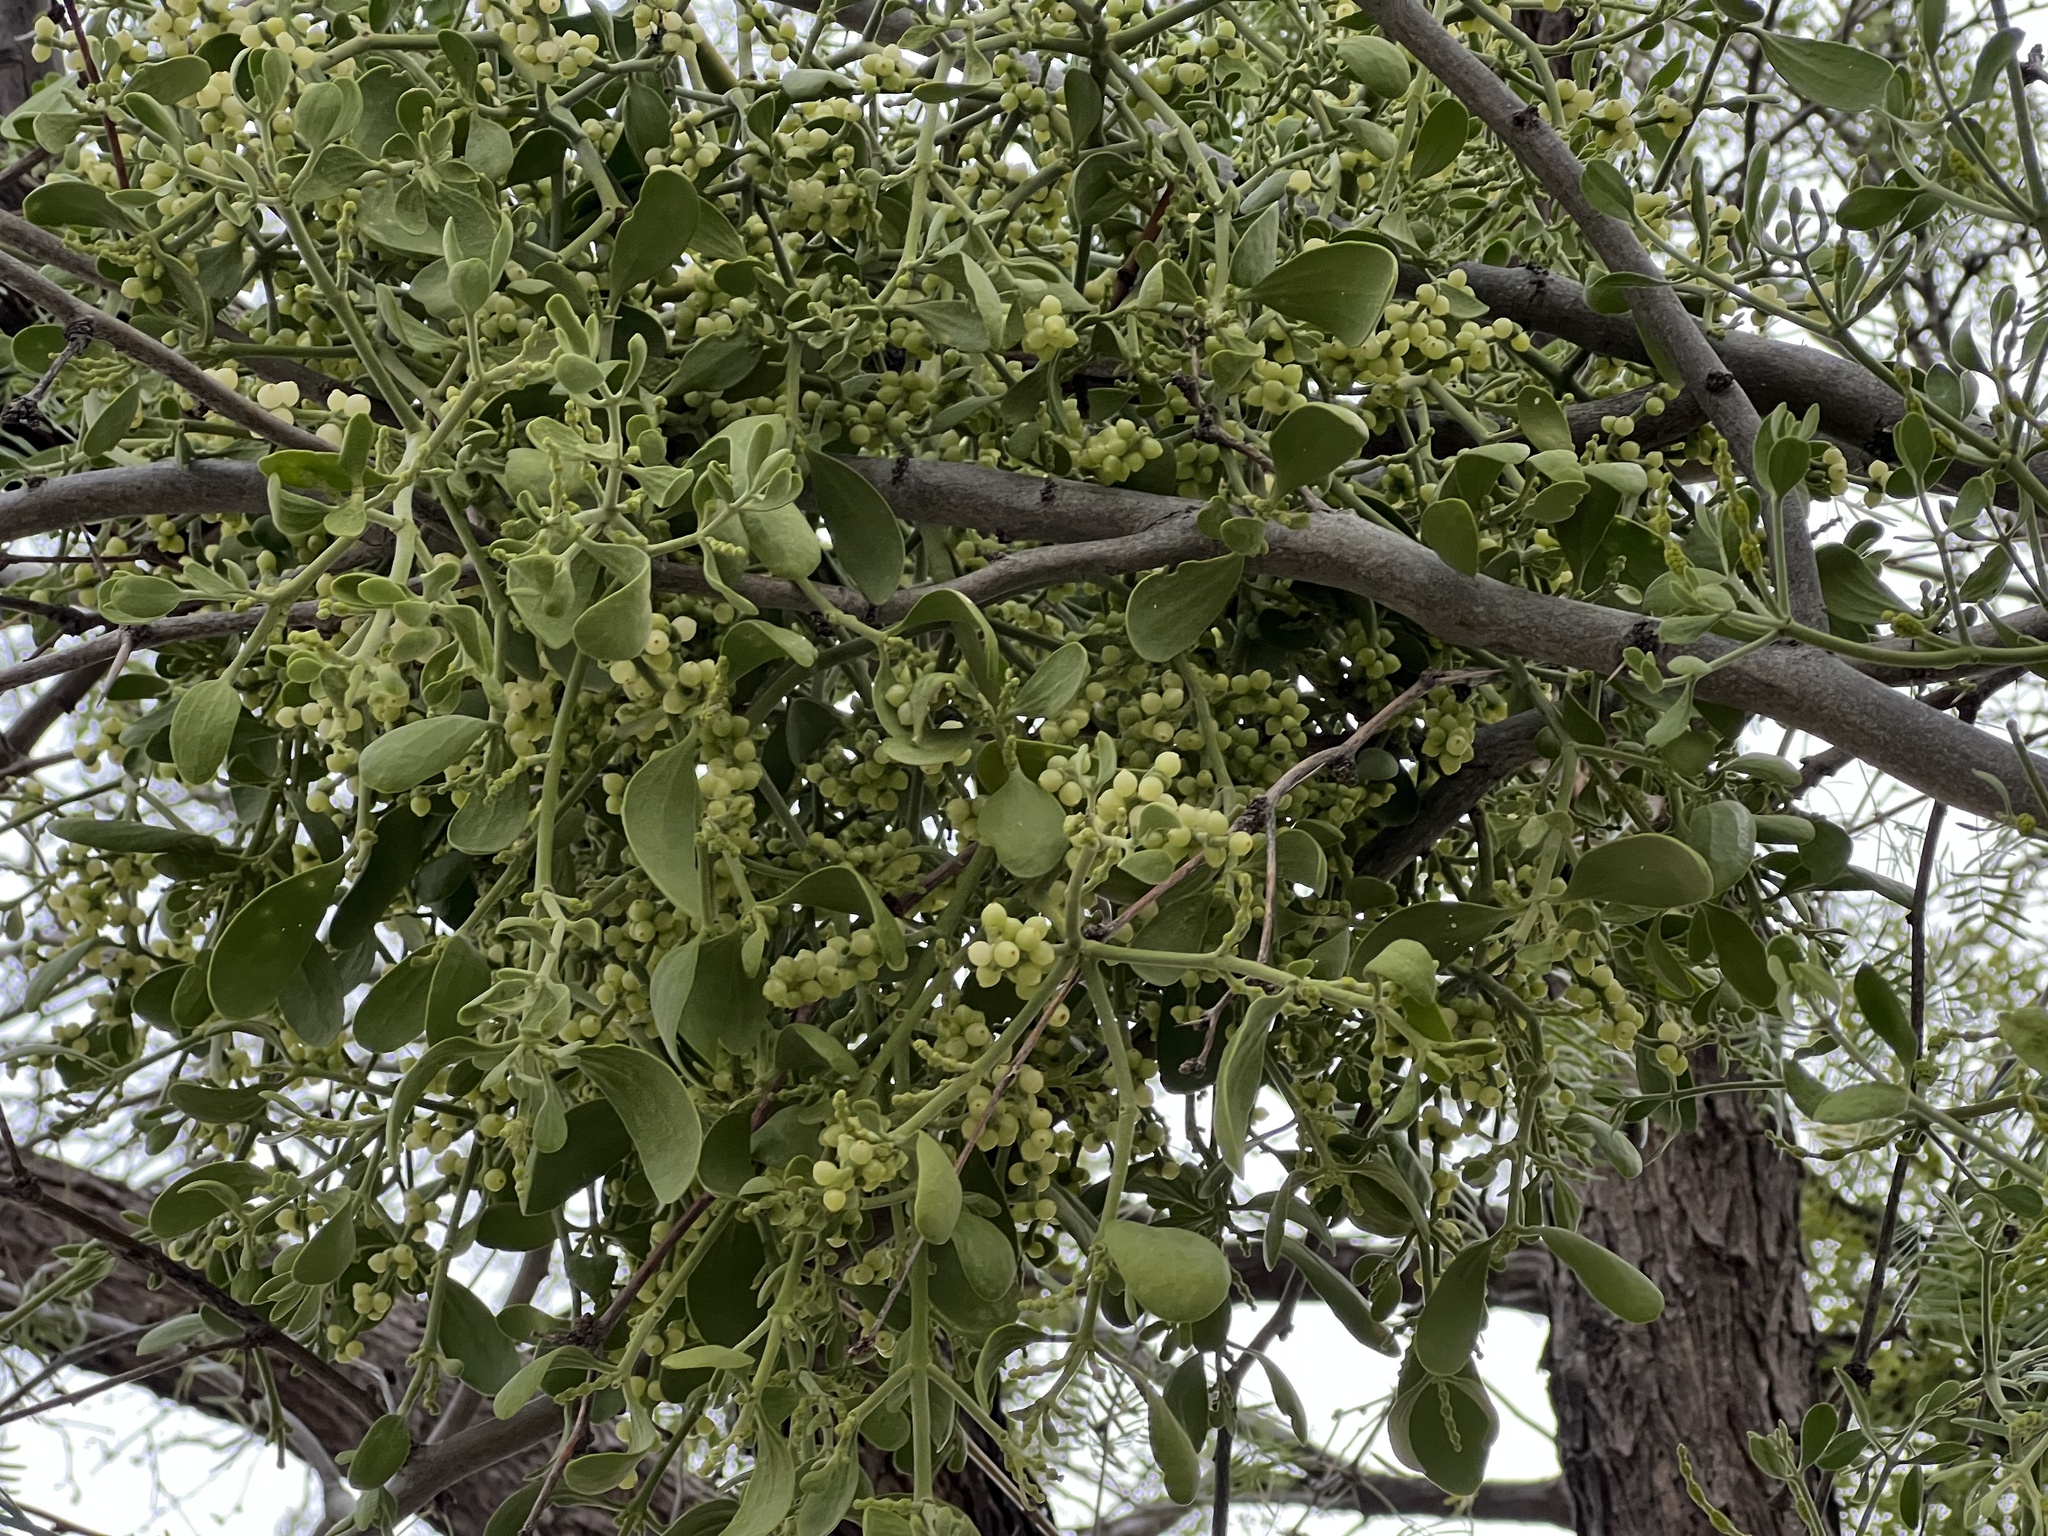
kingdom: Plantae
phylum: Tracheophyta
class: Magnoliopsida
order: Santalales
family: Viscaceae
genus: Phoradendron
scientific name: Phoradendron leucarpum
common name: Pacific mistletoe
